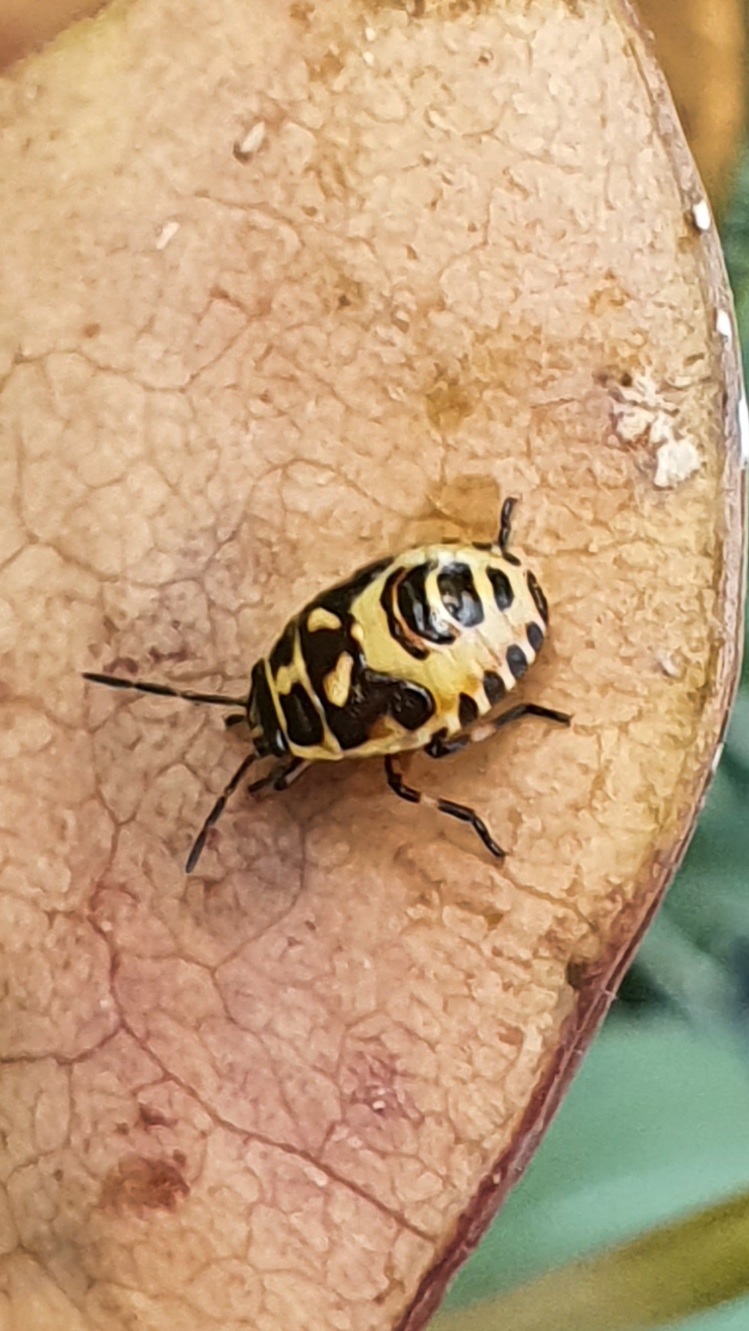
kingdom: Animalia
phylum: Arthropoda
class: Insecta
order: Hemiptera
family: Pentatomidae
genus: Eurydema
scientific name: Eurydema oleracea
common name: Cabbage bug
